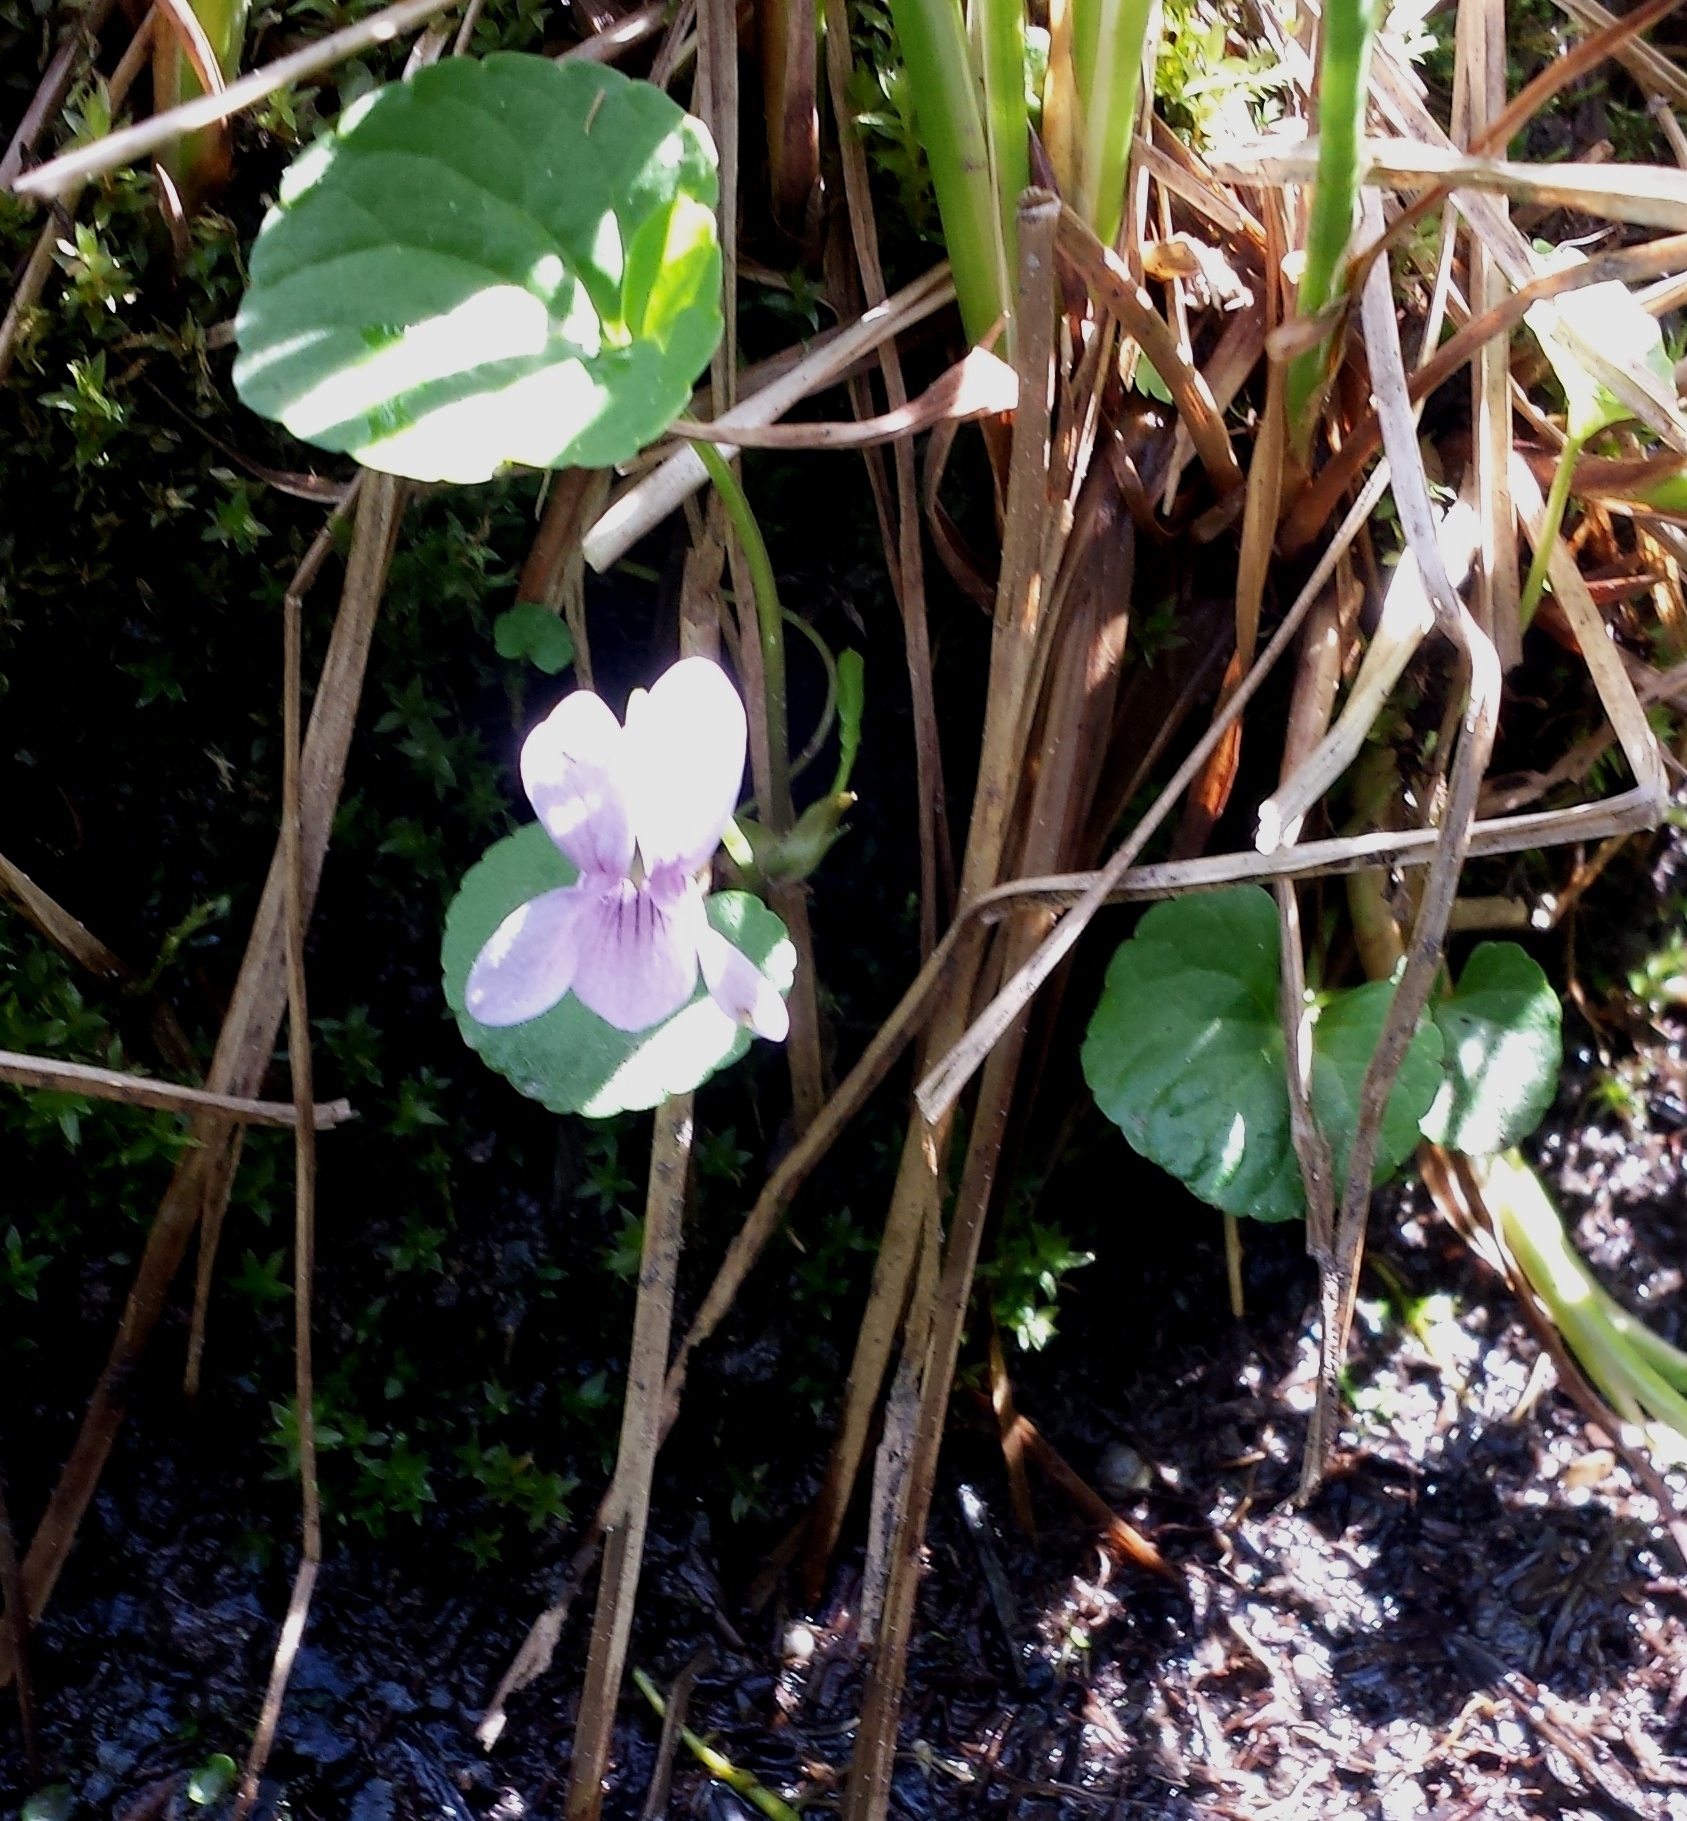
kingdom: Plantae
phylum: Tracheophyta
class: Magnoliopsida
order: Malpighiales
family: Violaceae
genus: Viola
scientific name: Viola palustris
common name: Marsh violet
